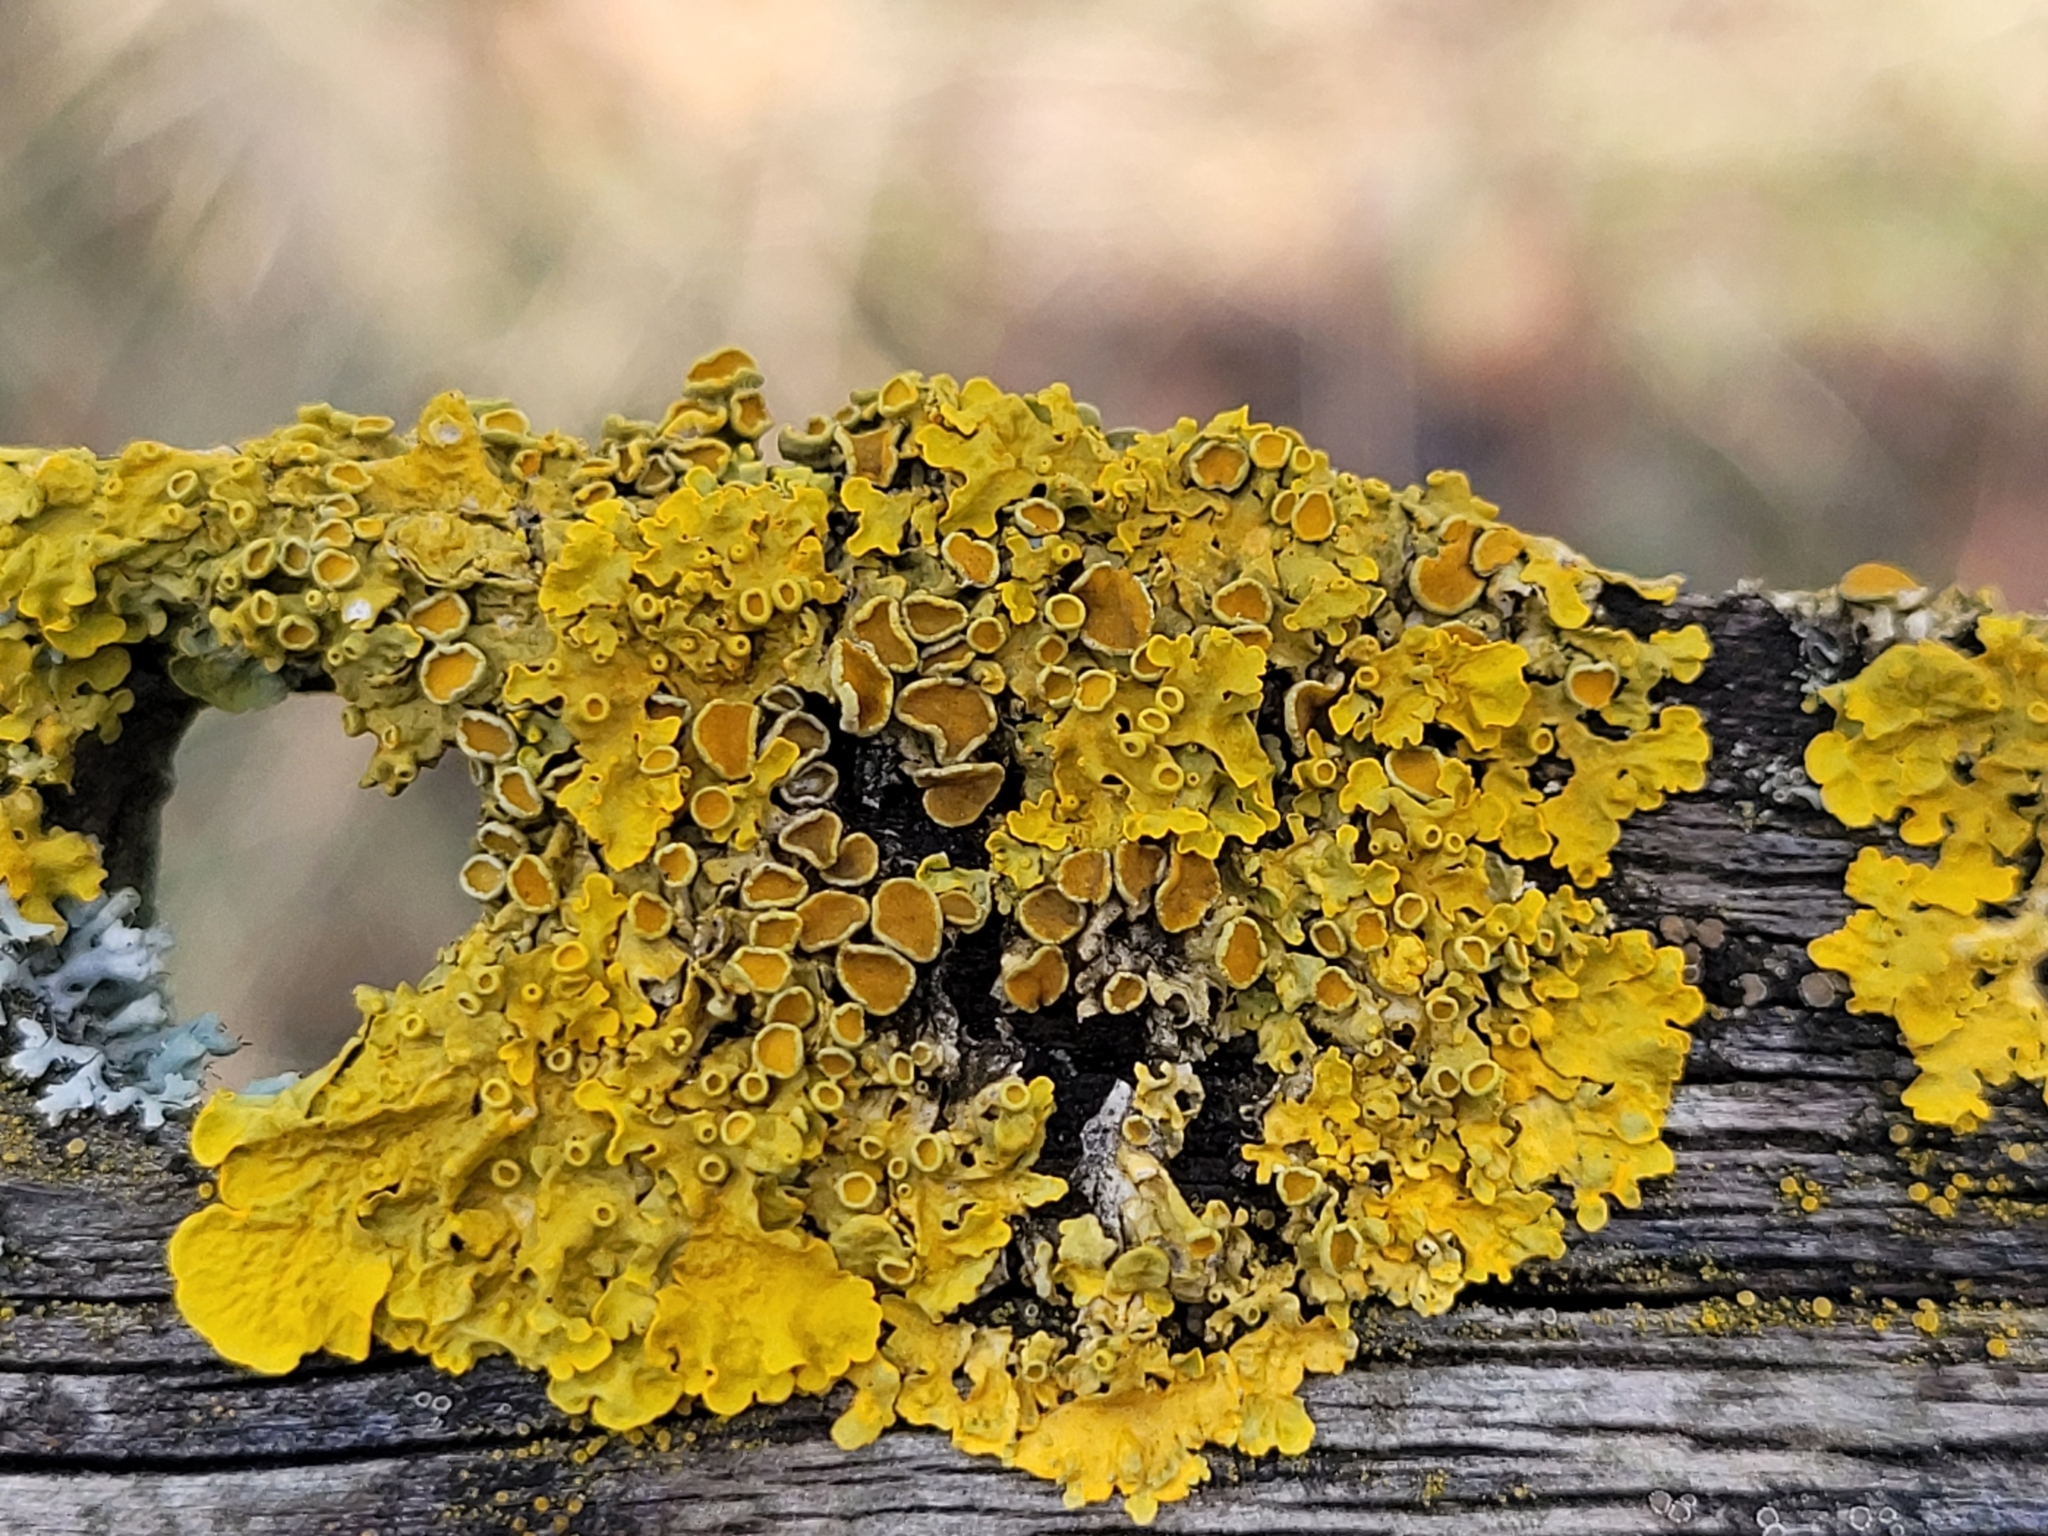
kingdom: Fungi
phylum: Ascomycota
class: Lecanoromycetes
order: Teloschistales
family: Teloschistaceae
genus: Xanthoria
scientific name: Xanthoria parietina
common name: Common orange lichen
